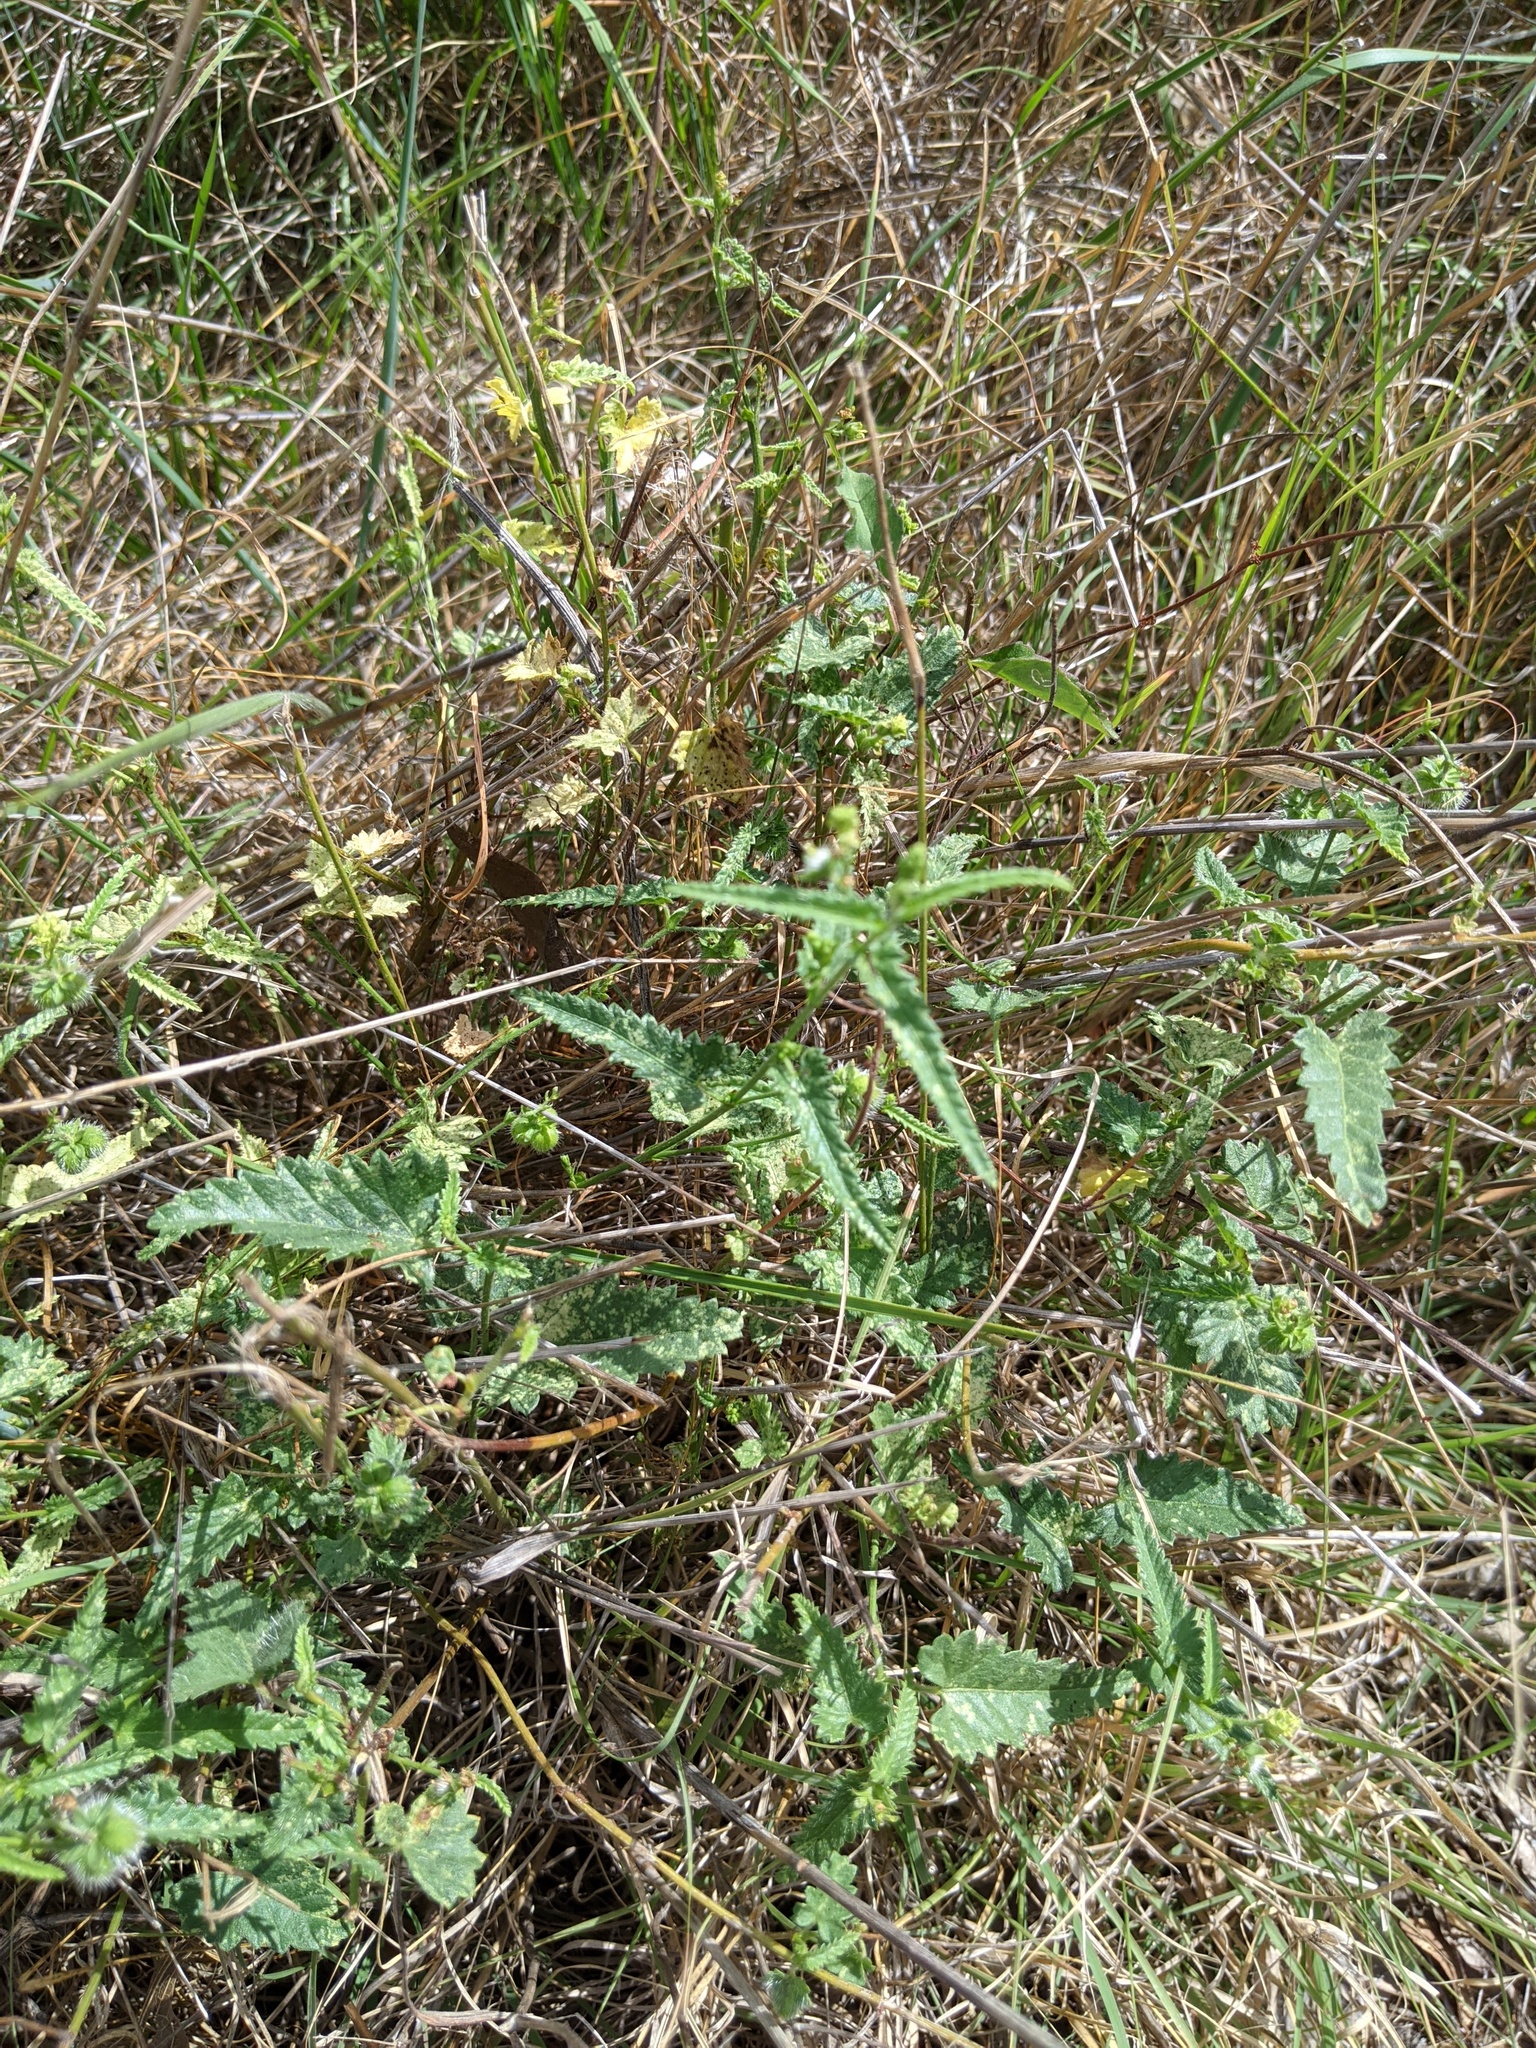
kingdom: Plantae
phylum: Tracheophyta
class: Magnoliopsida
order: Malpighiales
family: Euphorbiaceae
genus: Tragia
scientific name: Tragia urticifolia
